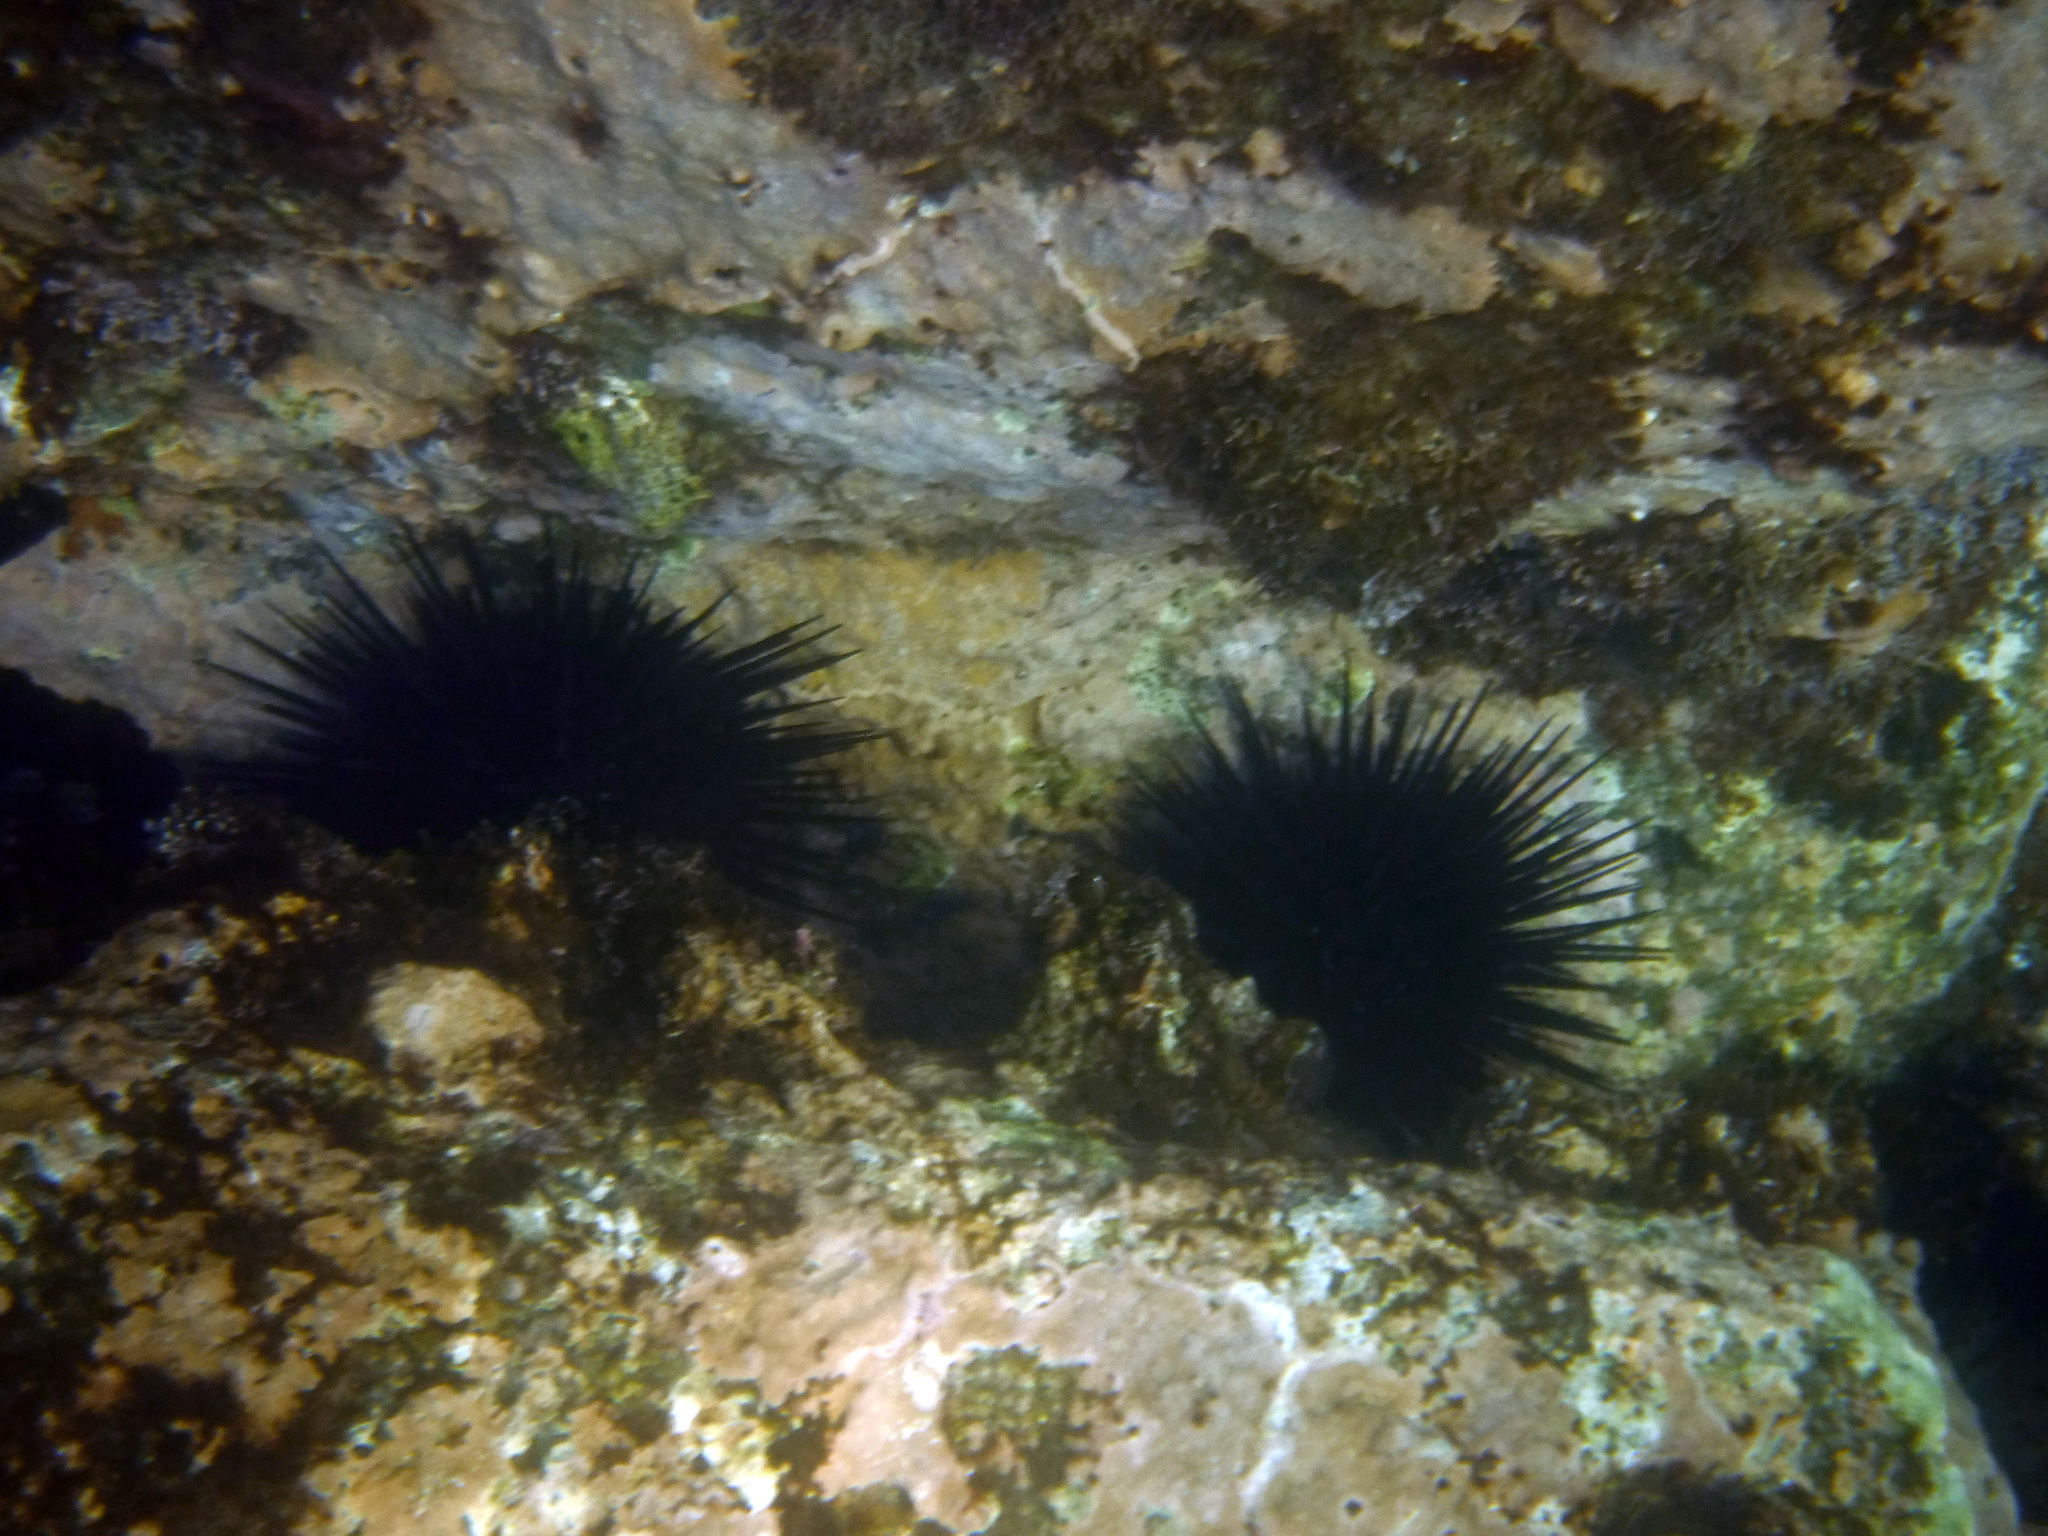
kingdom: Animalia
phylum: Echinodermata
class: Echinoidea
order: Camarodonta
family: Echinometridae
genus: Echinometra
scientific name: Echinometra vanbrunti
